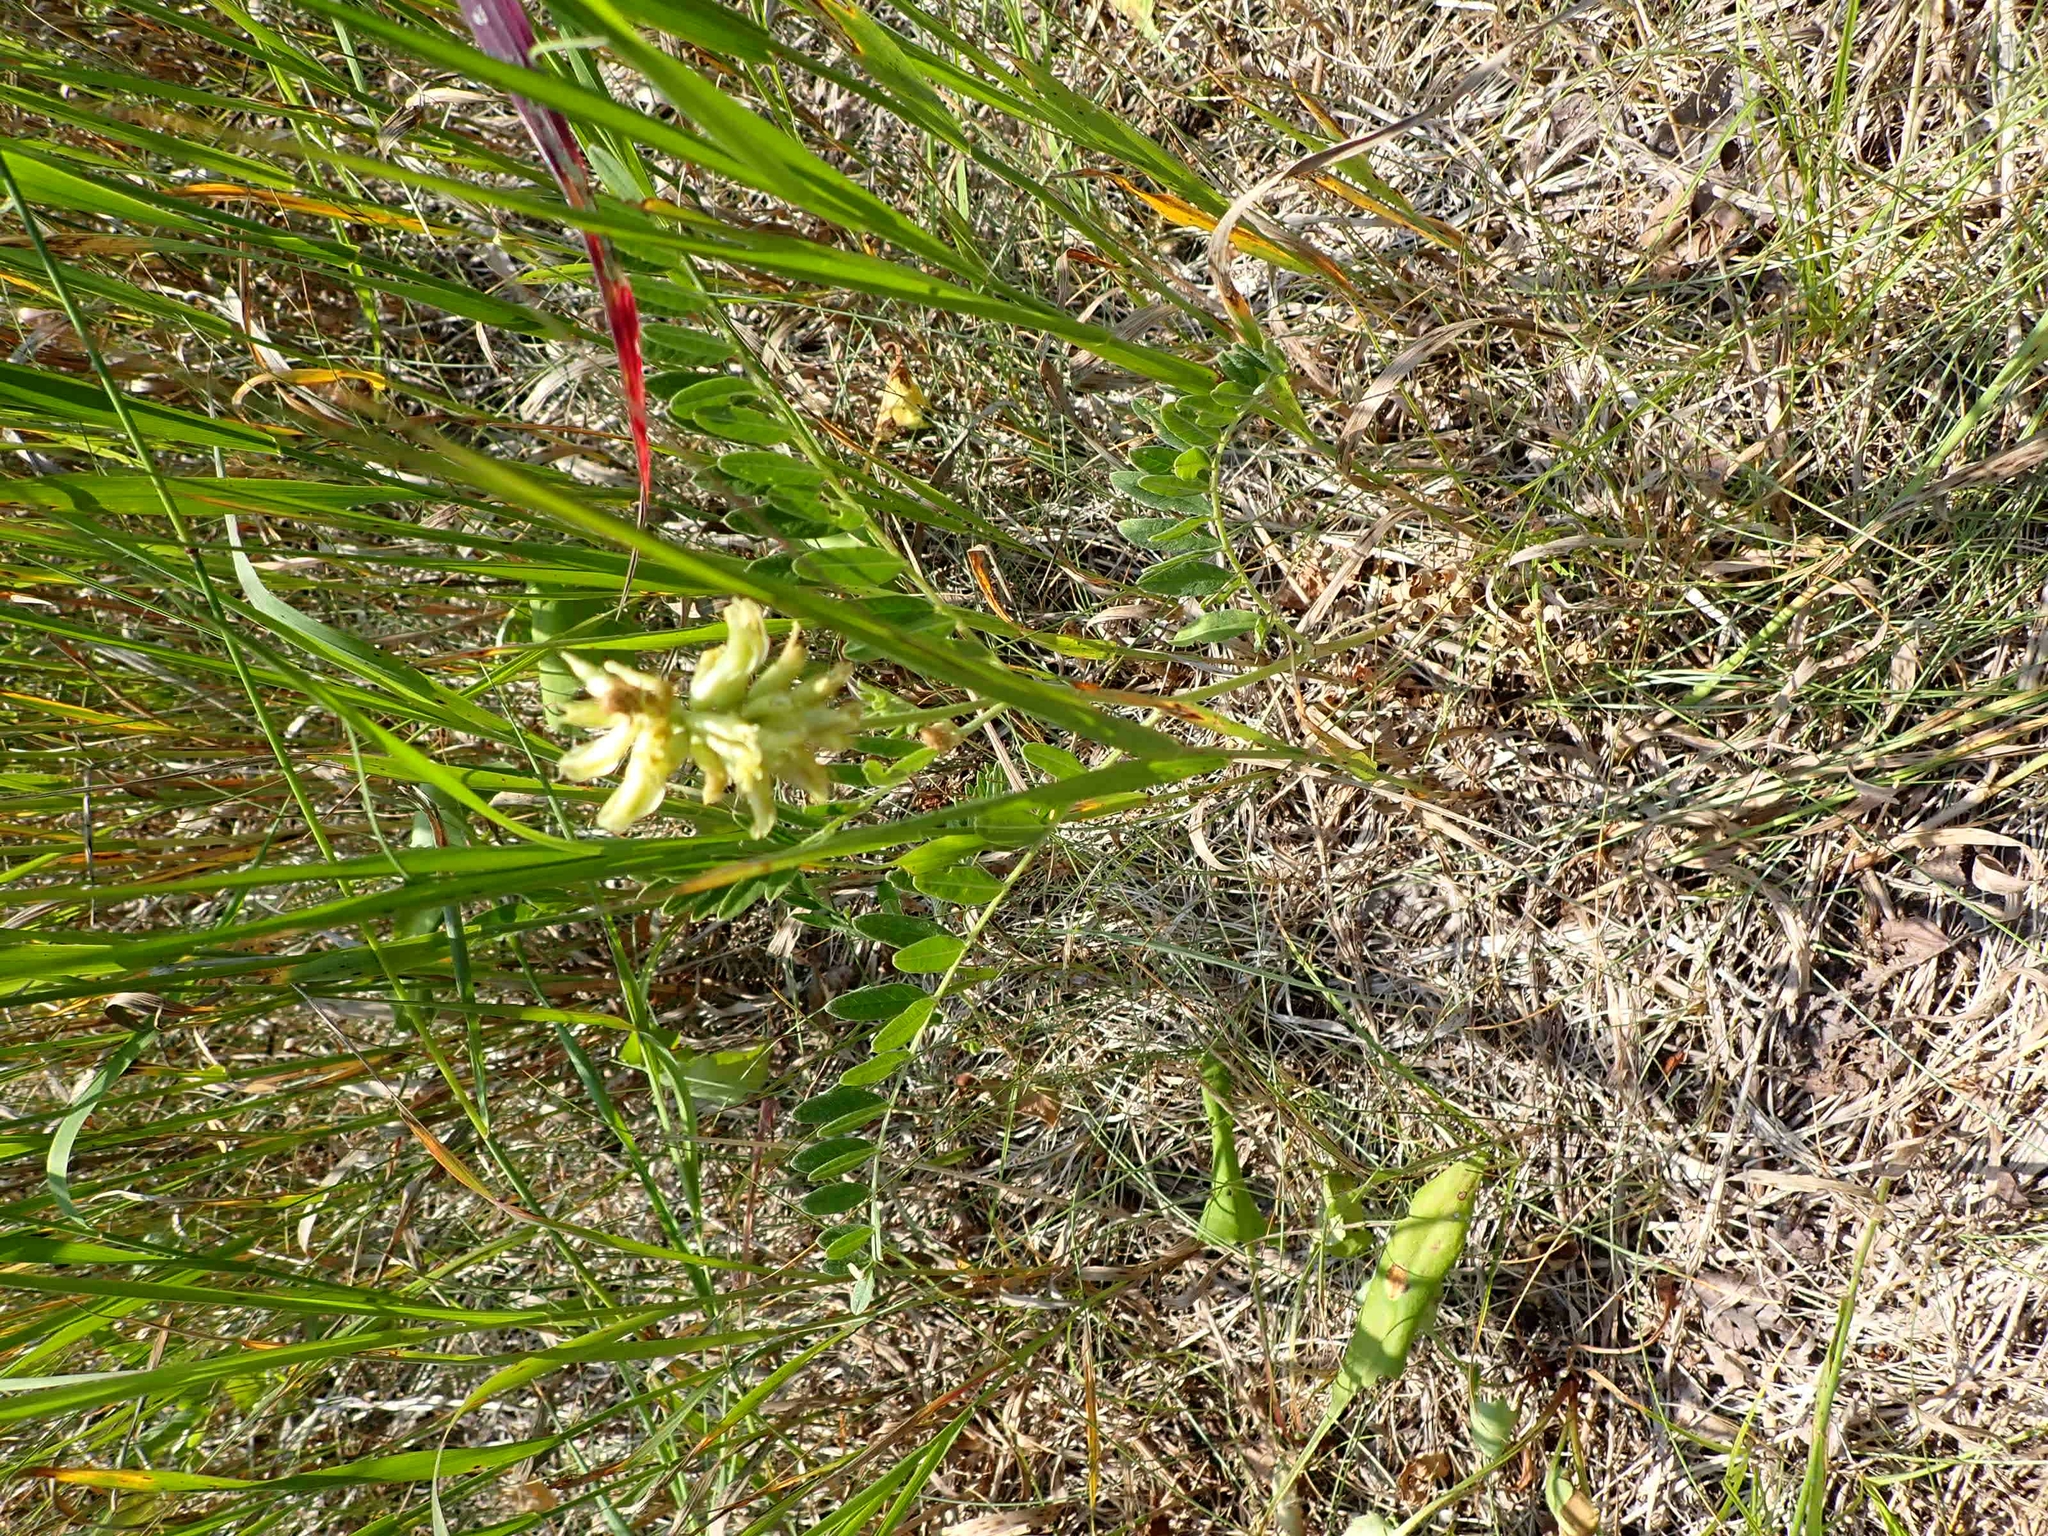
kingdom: Plantae
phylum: Tracheophyta
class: Magnoliopsida
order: Fabales
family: Fabaceae
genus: Astragalus
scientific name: Astragalus canadensis
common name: Canada milk-vetch
